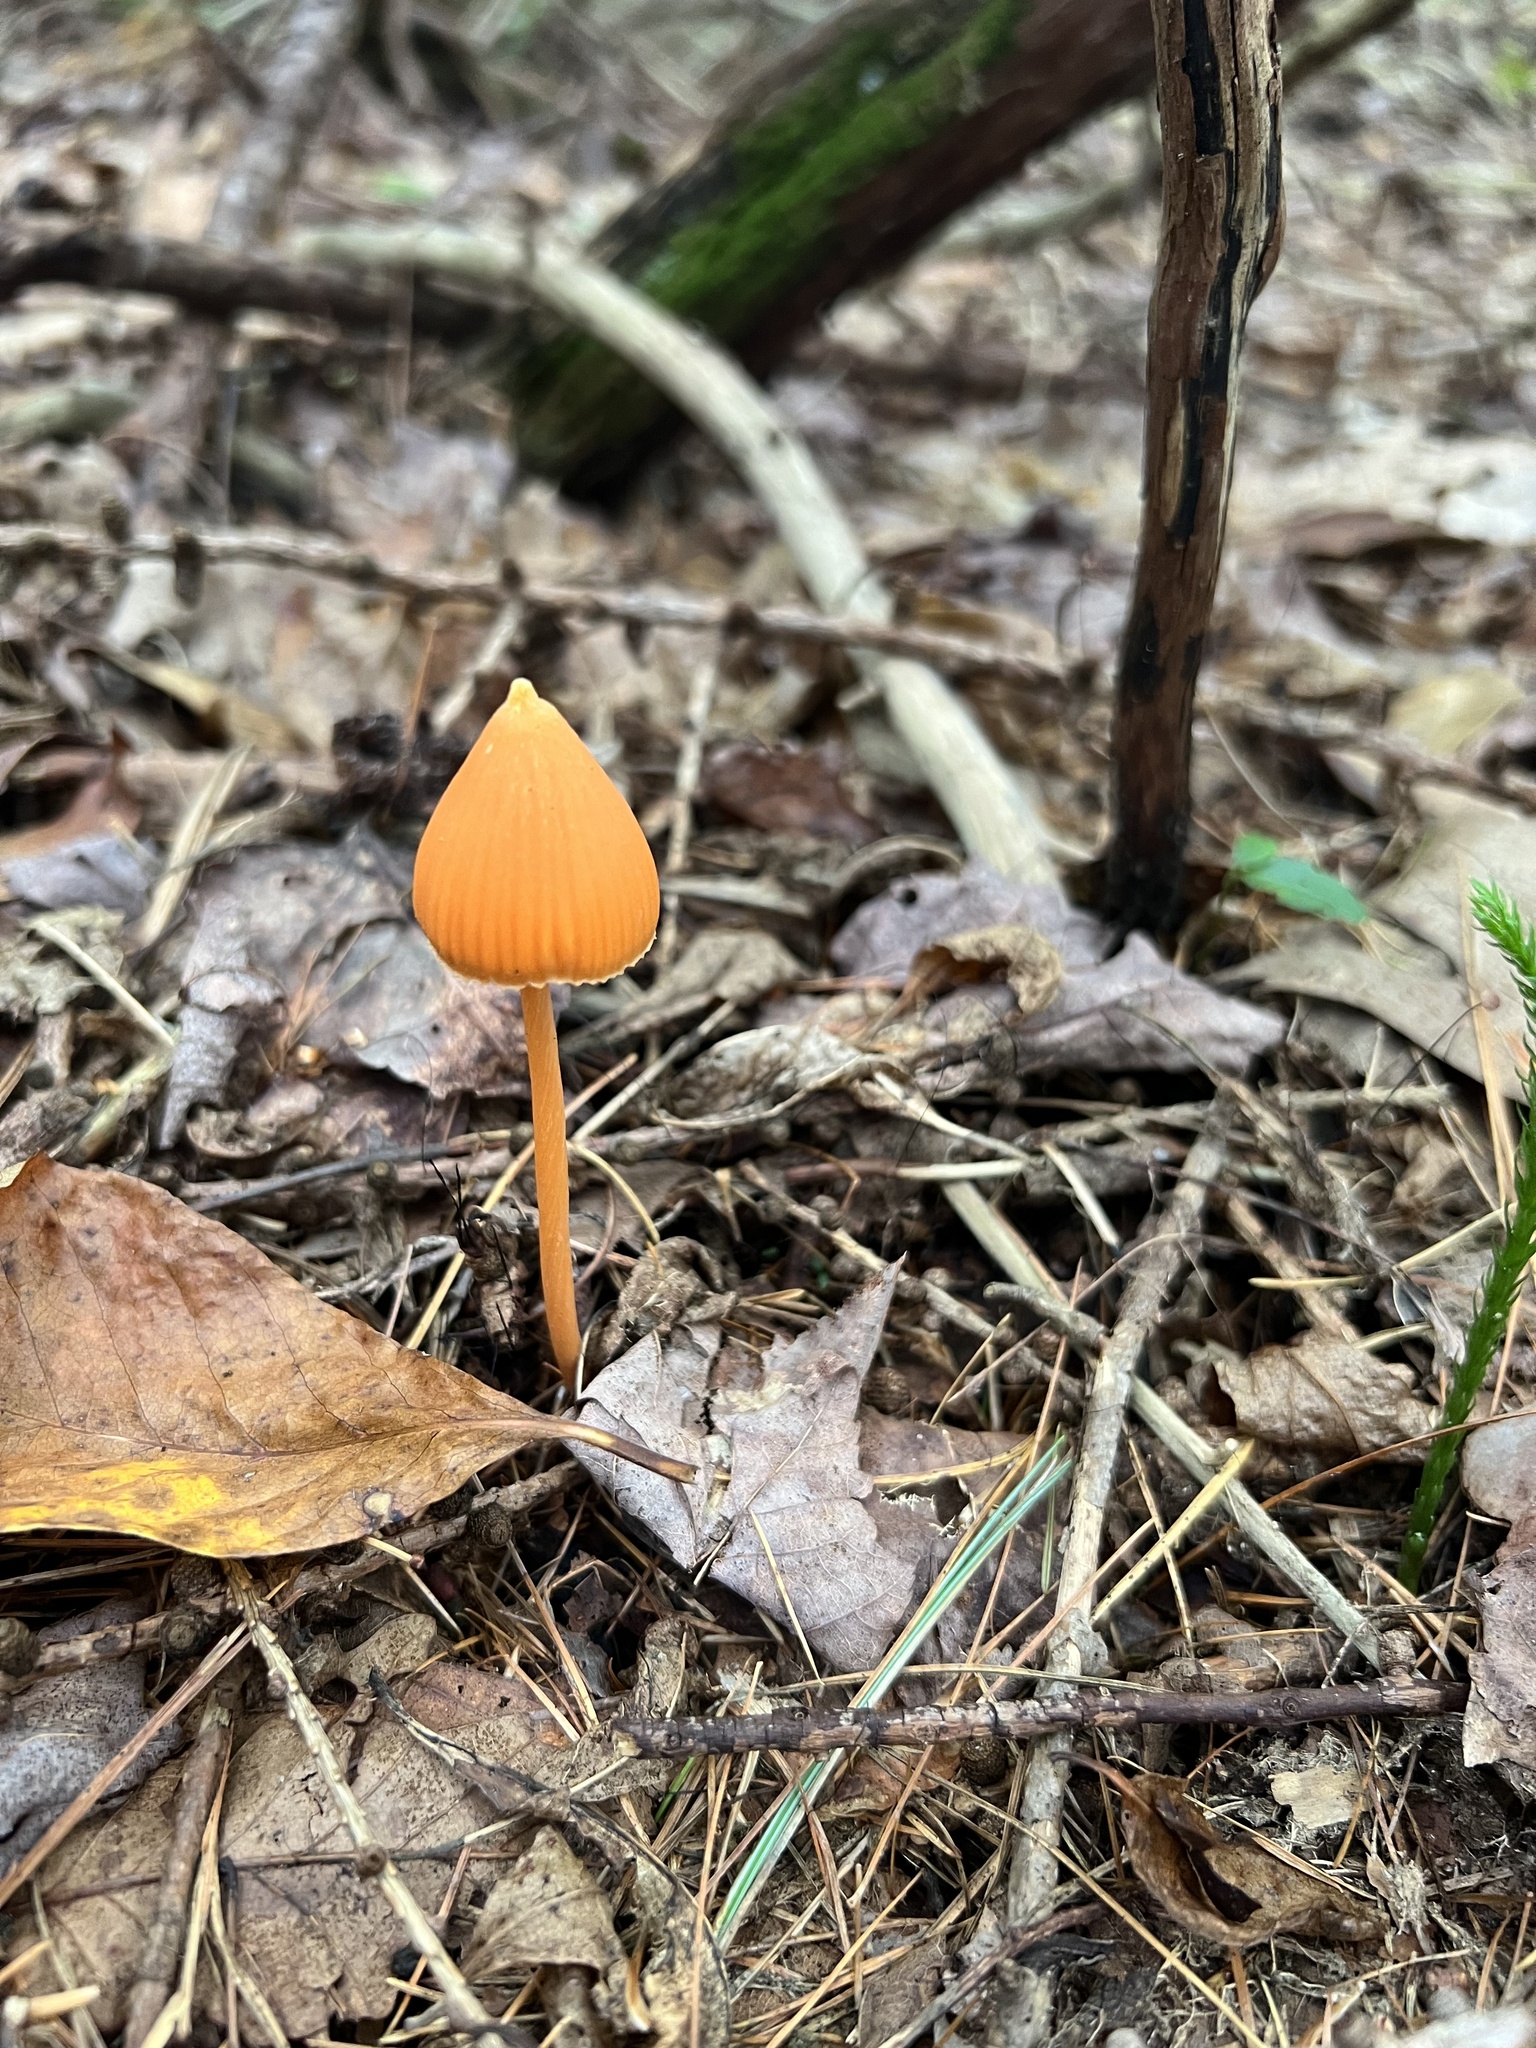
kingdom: Fungi
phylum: Basidiomycota
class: Agaricomycetes
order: Agaricales
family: Entolomataceae
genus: Entoloma
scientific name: Entoloma quadratum
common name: Salmon pinkgill
